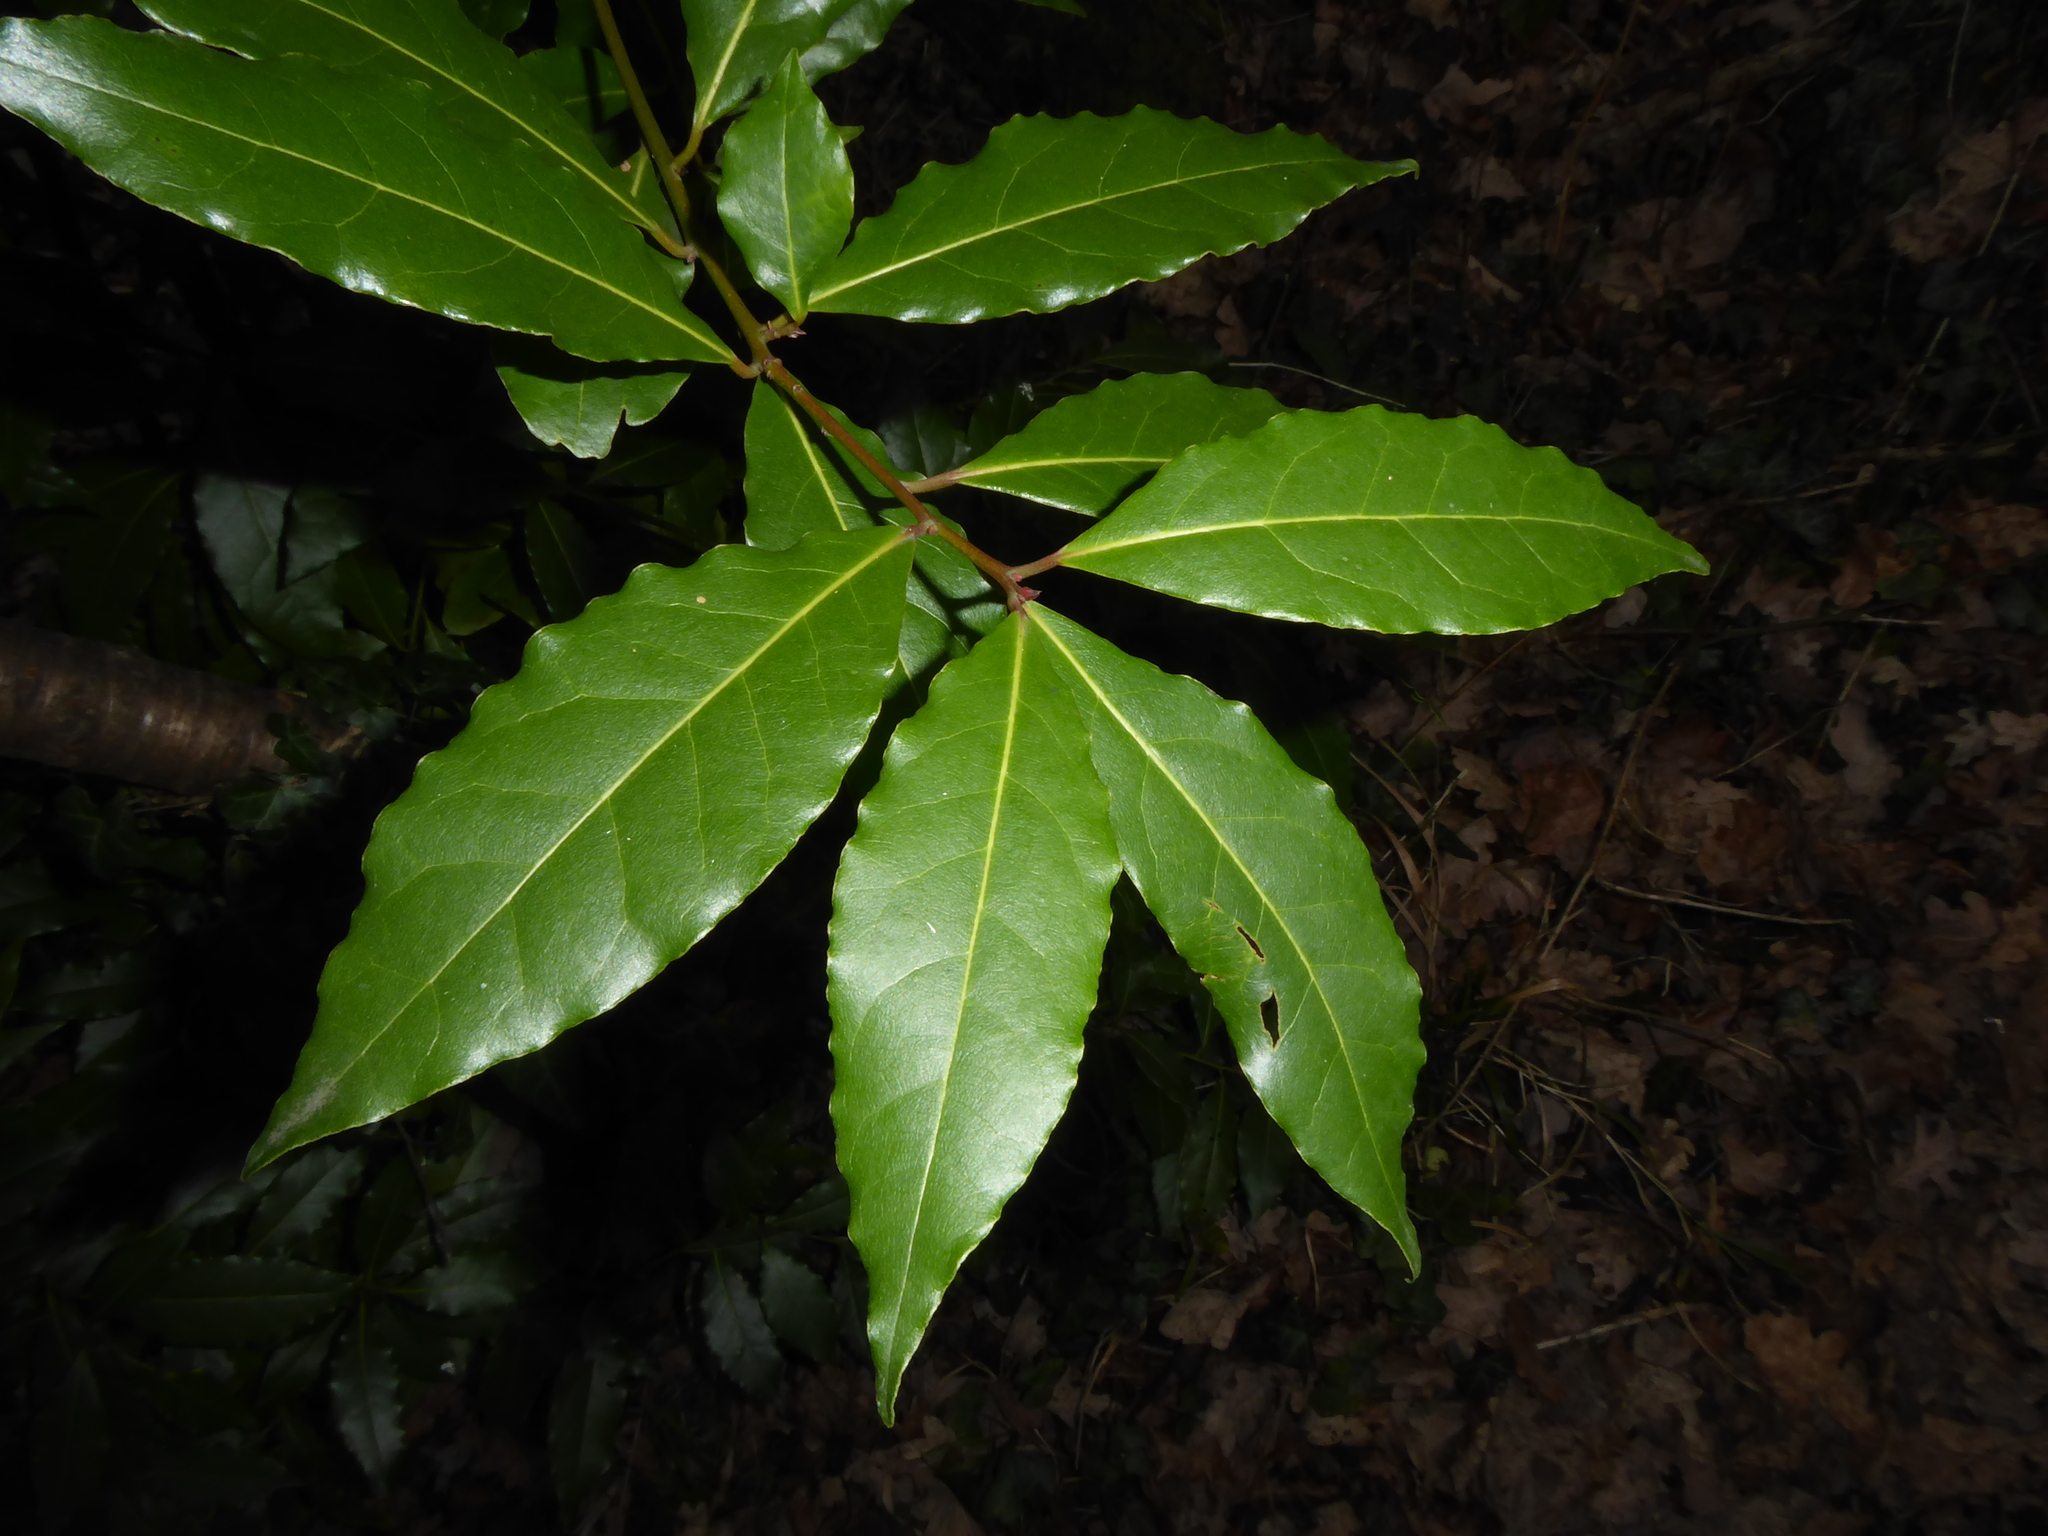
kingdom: Plantae
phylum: Tracheophyta
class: Magnoliopsida
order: Laurales
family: Lauraceae
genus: Laurus
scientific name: Laurus nobilis
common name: Bay
